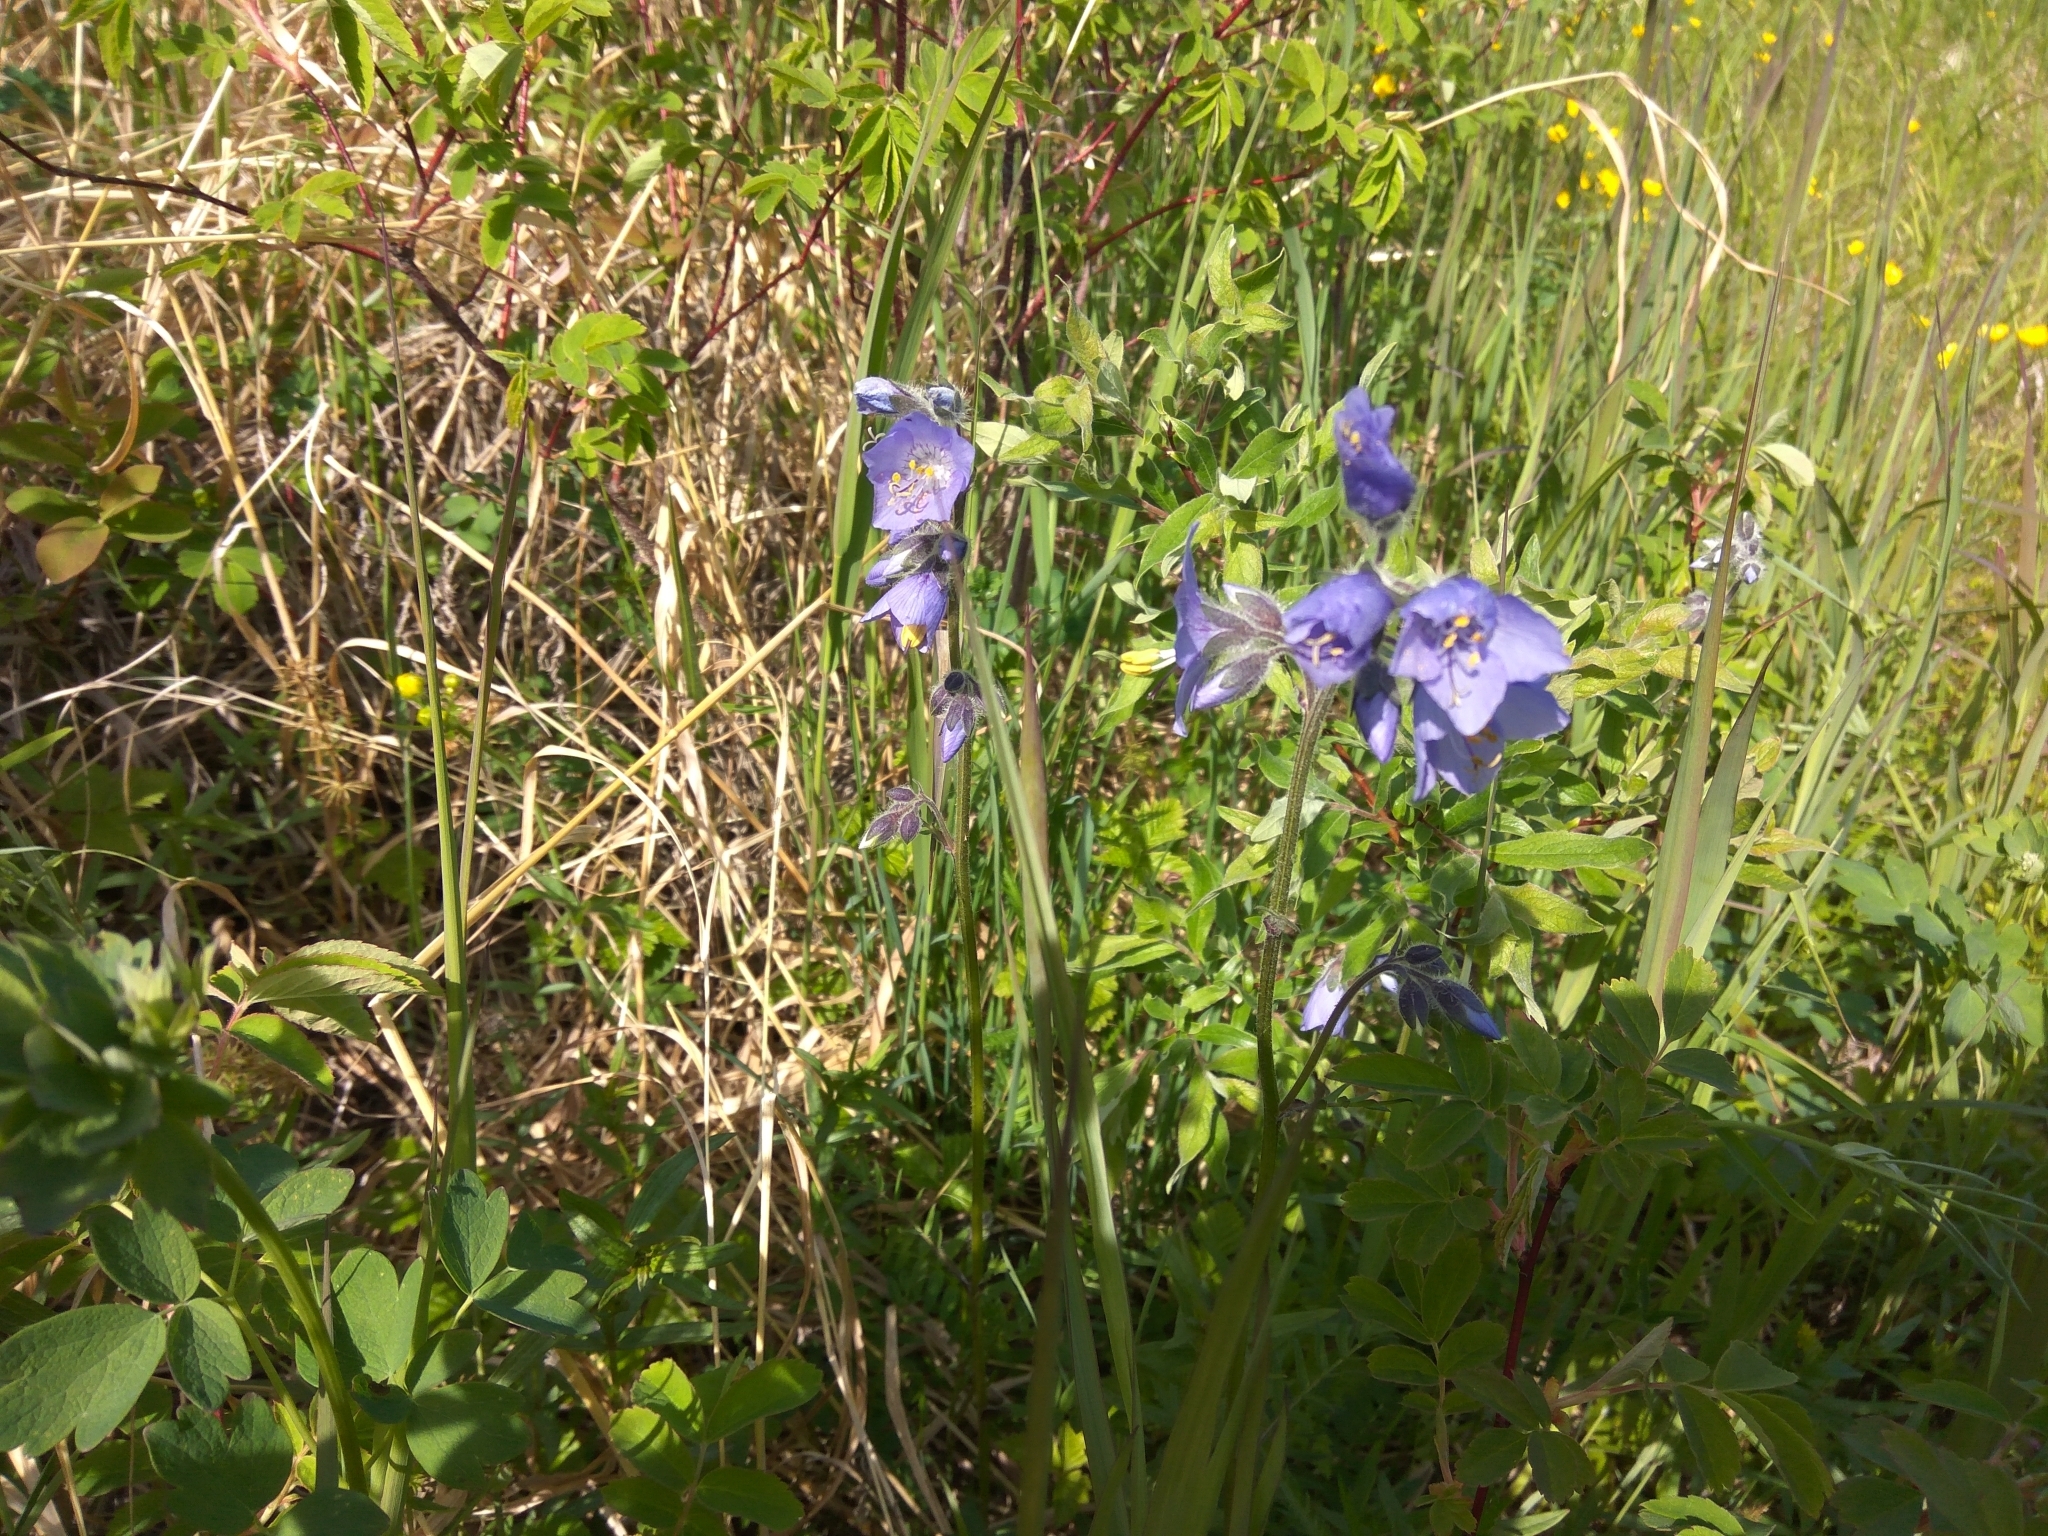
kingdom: Plantae
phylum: Tracheophyta
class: Magnoliopsida
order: Ericales
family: Polemoniaceae
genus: Polemonium
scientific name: Polemonium acutiflorum
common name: Tall jacob's-ladder
